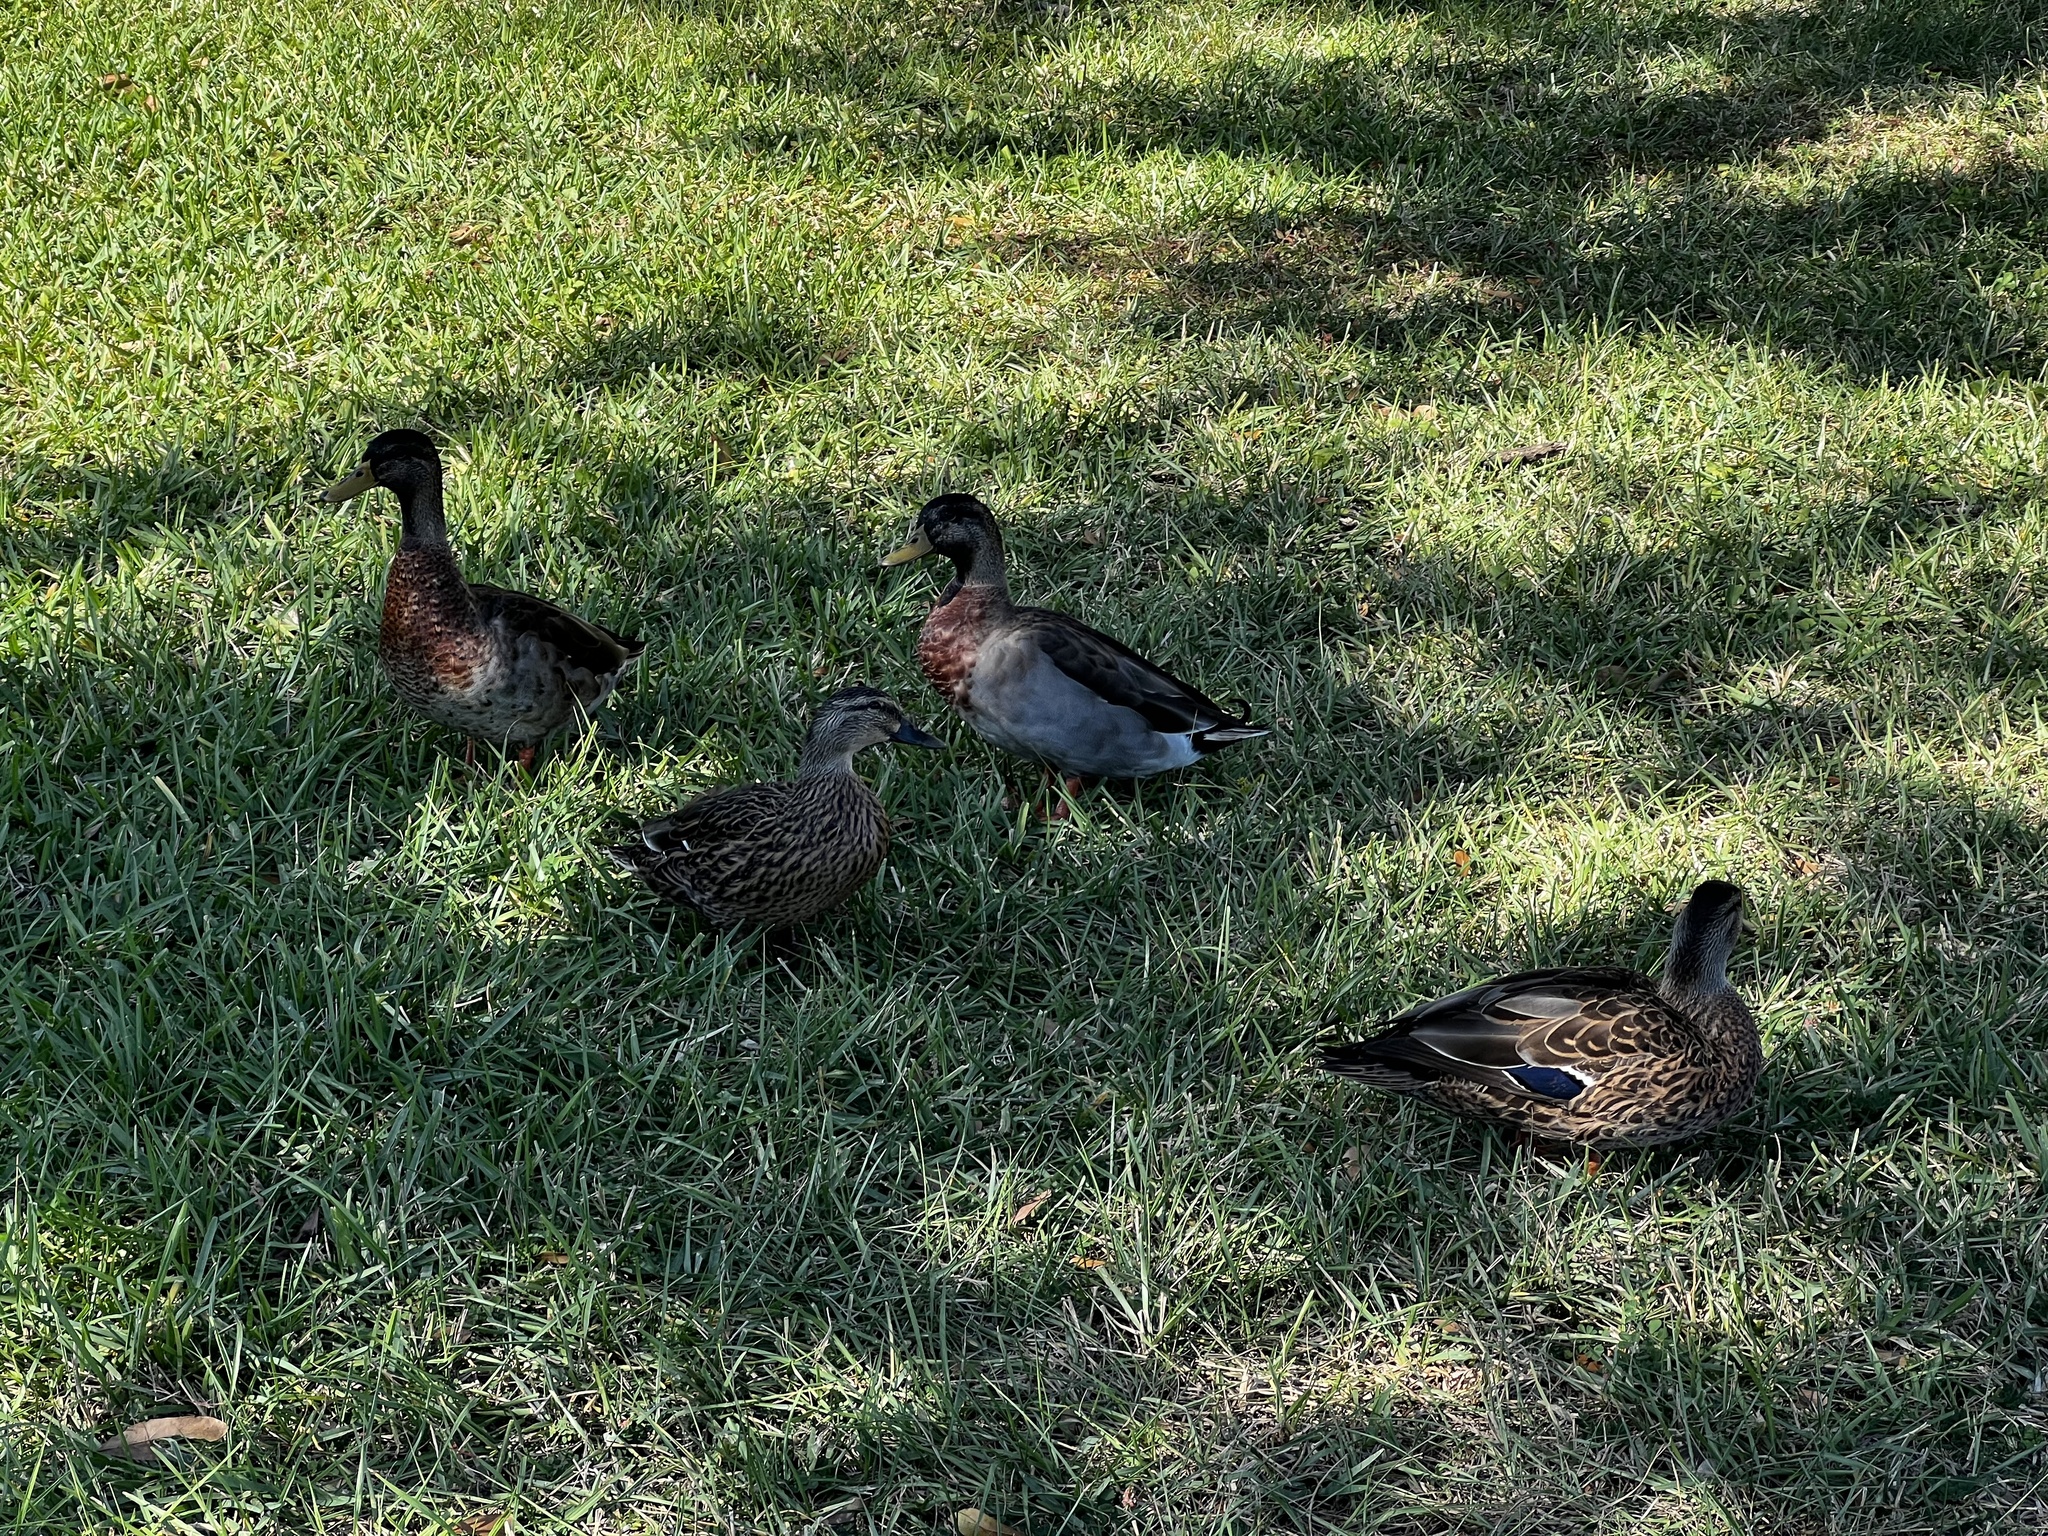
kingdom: Animalia
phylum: Chordata
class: Aves
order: Anseriformes
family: Anatidae
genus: Anas
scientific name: Anas platyrhynchos
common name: Mallard
